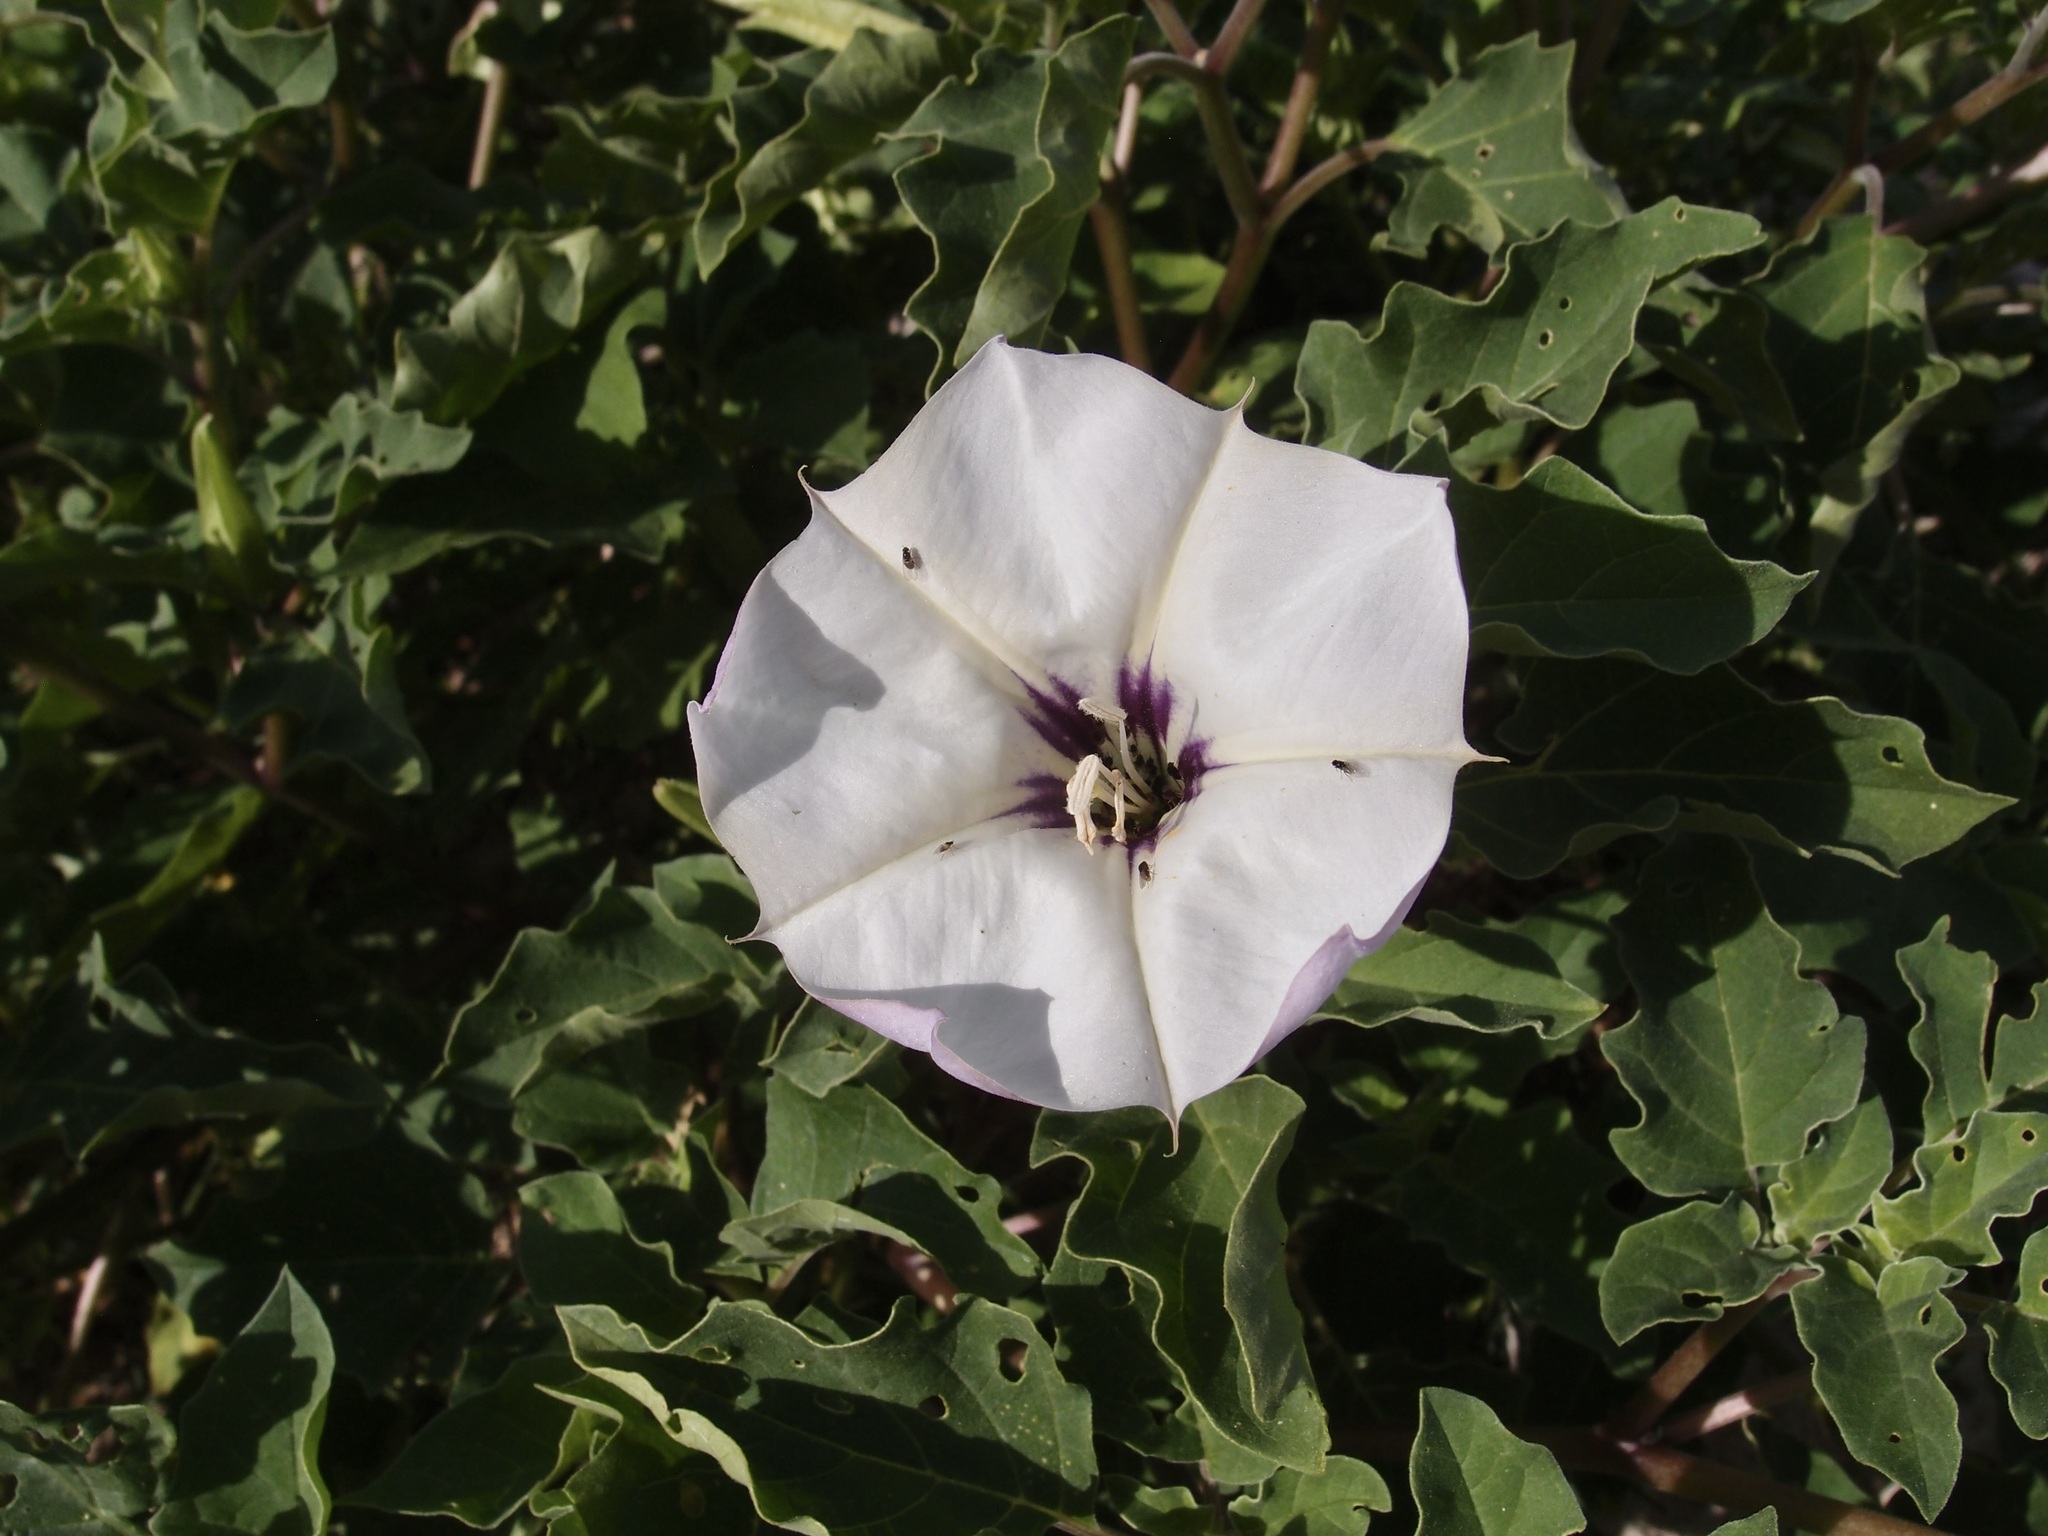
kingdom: Plantae
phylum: Tracheophyta
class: Magnoliopsida
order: Solanales
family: Solanaceae
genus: Datura
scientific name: Datura discolor
